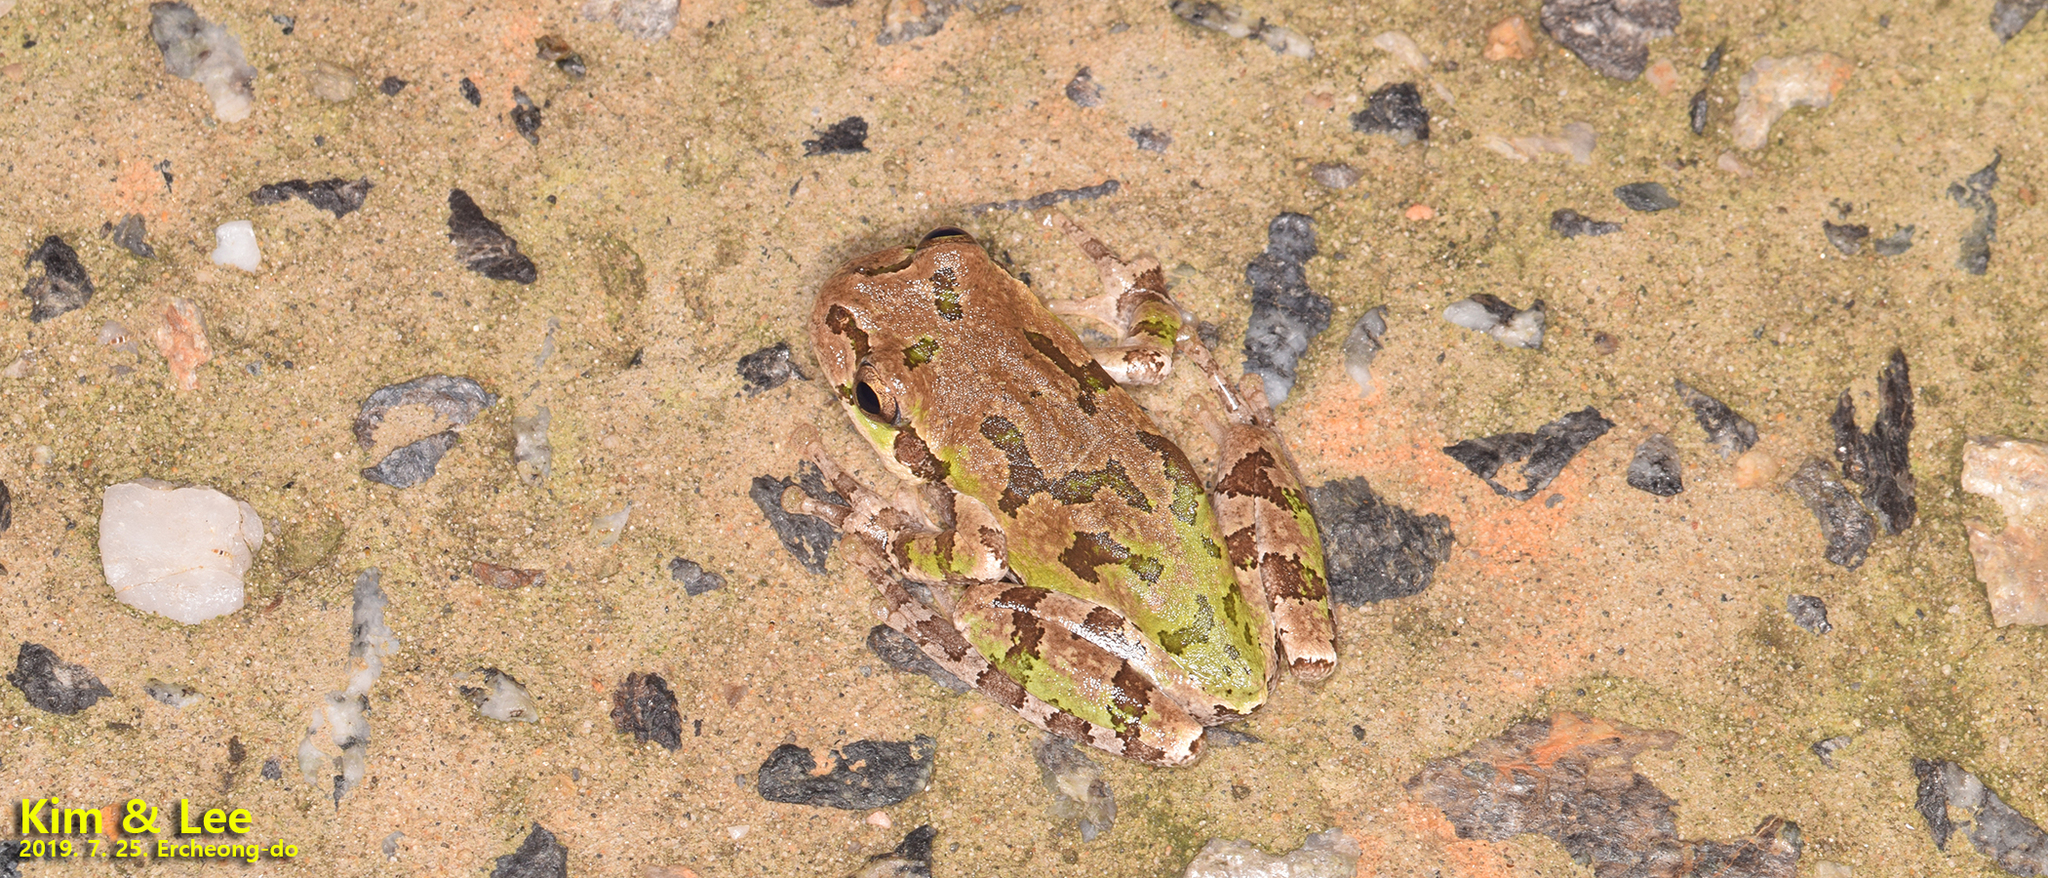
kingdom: Animalia
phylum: Chordata
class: Amphibia
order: Anura
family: Hylidae
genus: Dryophytes
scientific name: Dryophytes japonicus
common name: Japanese treefrog
